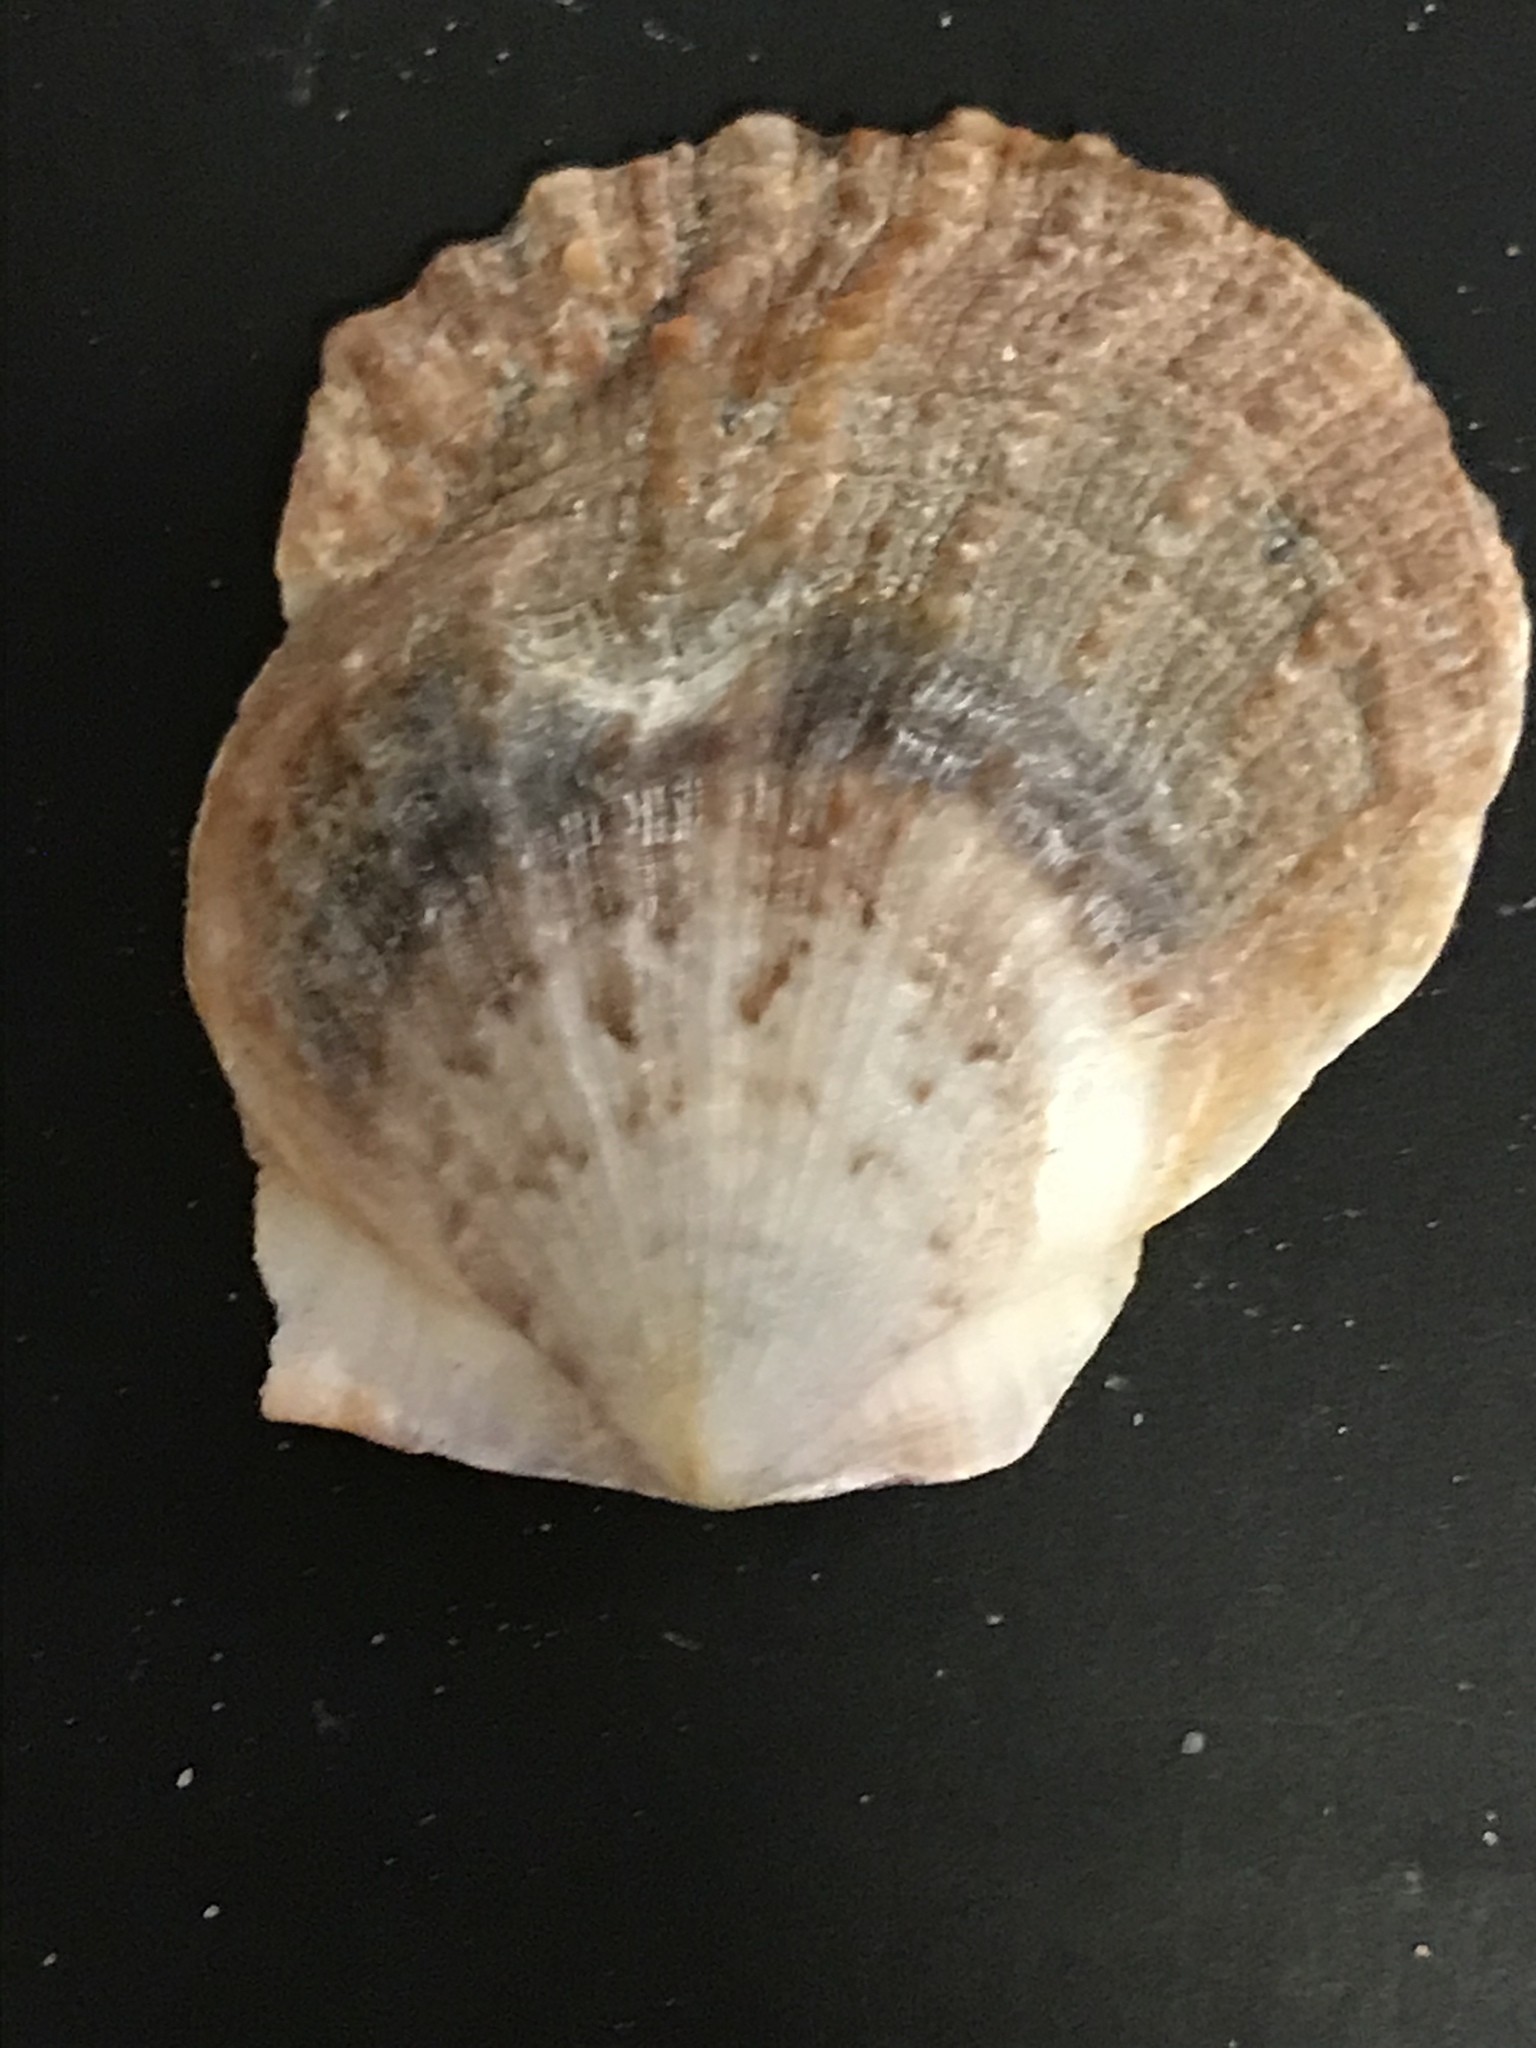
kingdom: Animalia
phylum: Mollusca
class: Bivalvia
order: Pectinida
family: Pectinidae
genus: Crassadoma
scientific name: Crassadoma gigantea
